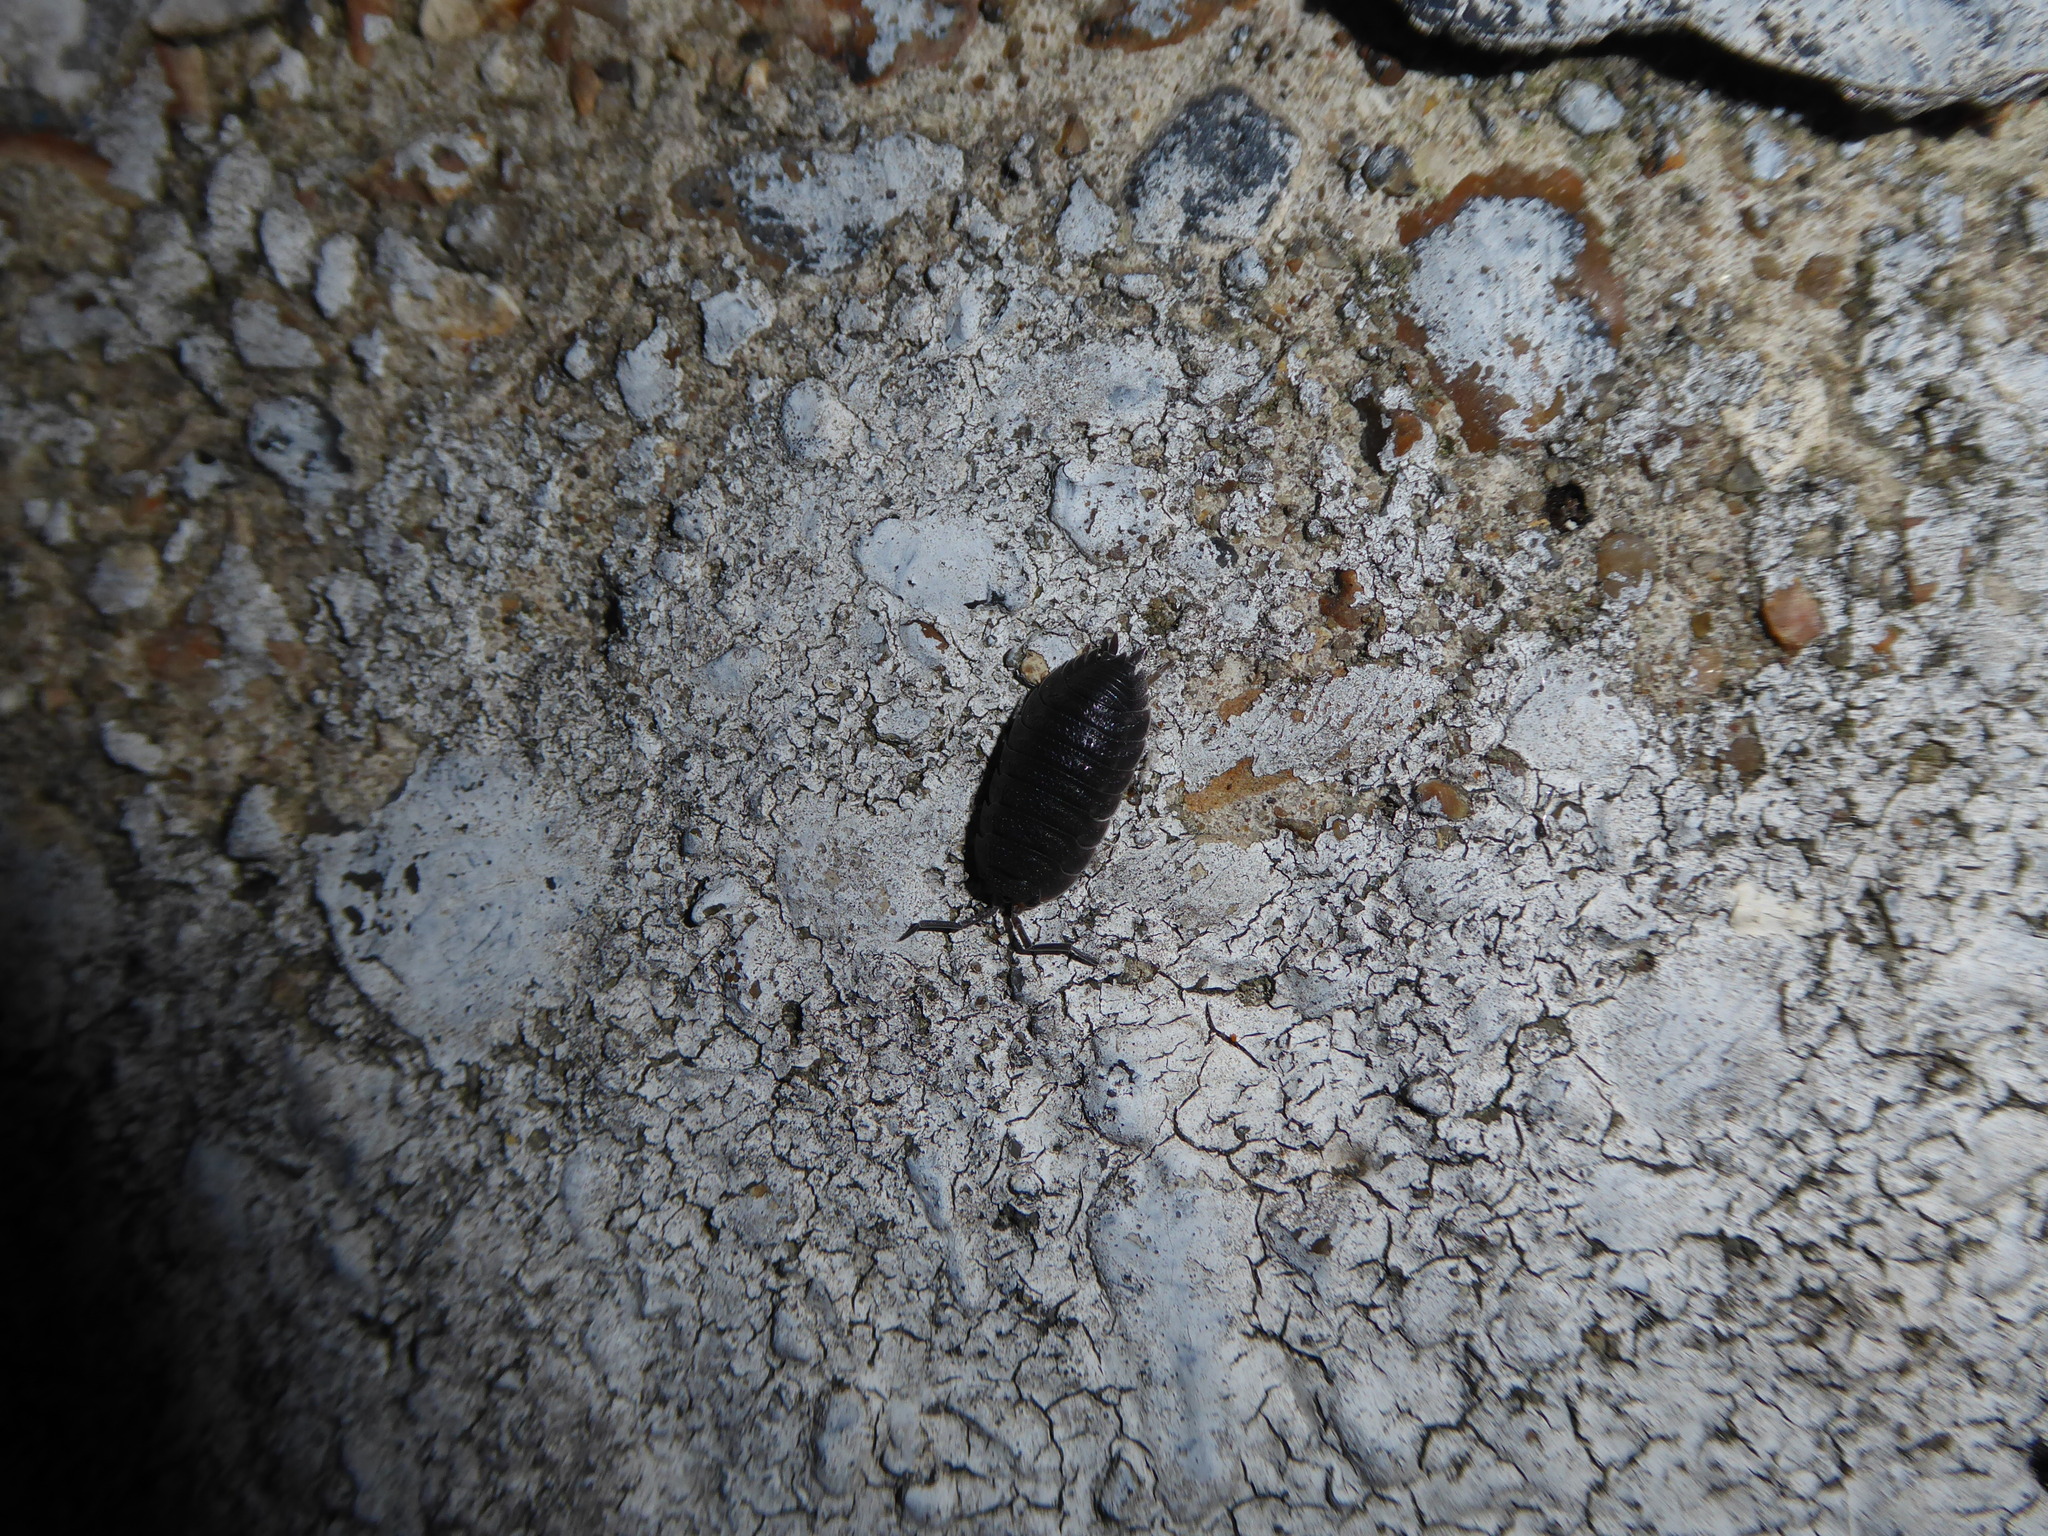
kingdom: Animalia
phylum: Arthropoda
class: Malacostraca
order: Isopoda
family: Porcellionidae
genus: Porcellio
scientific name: Porcellio scaber
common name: Common rough woodlouse
